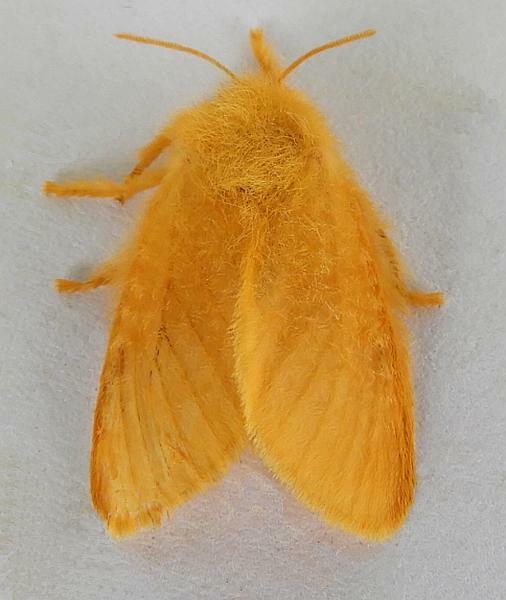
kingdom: Animalia
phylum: Arthropoda
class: Insecta
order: Lepidoptera
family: Megalopygidae
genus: Megalopyge
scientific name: Megalopyge pixidifera
